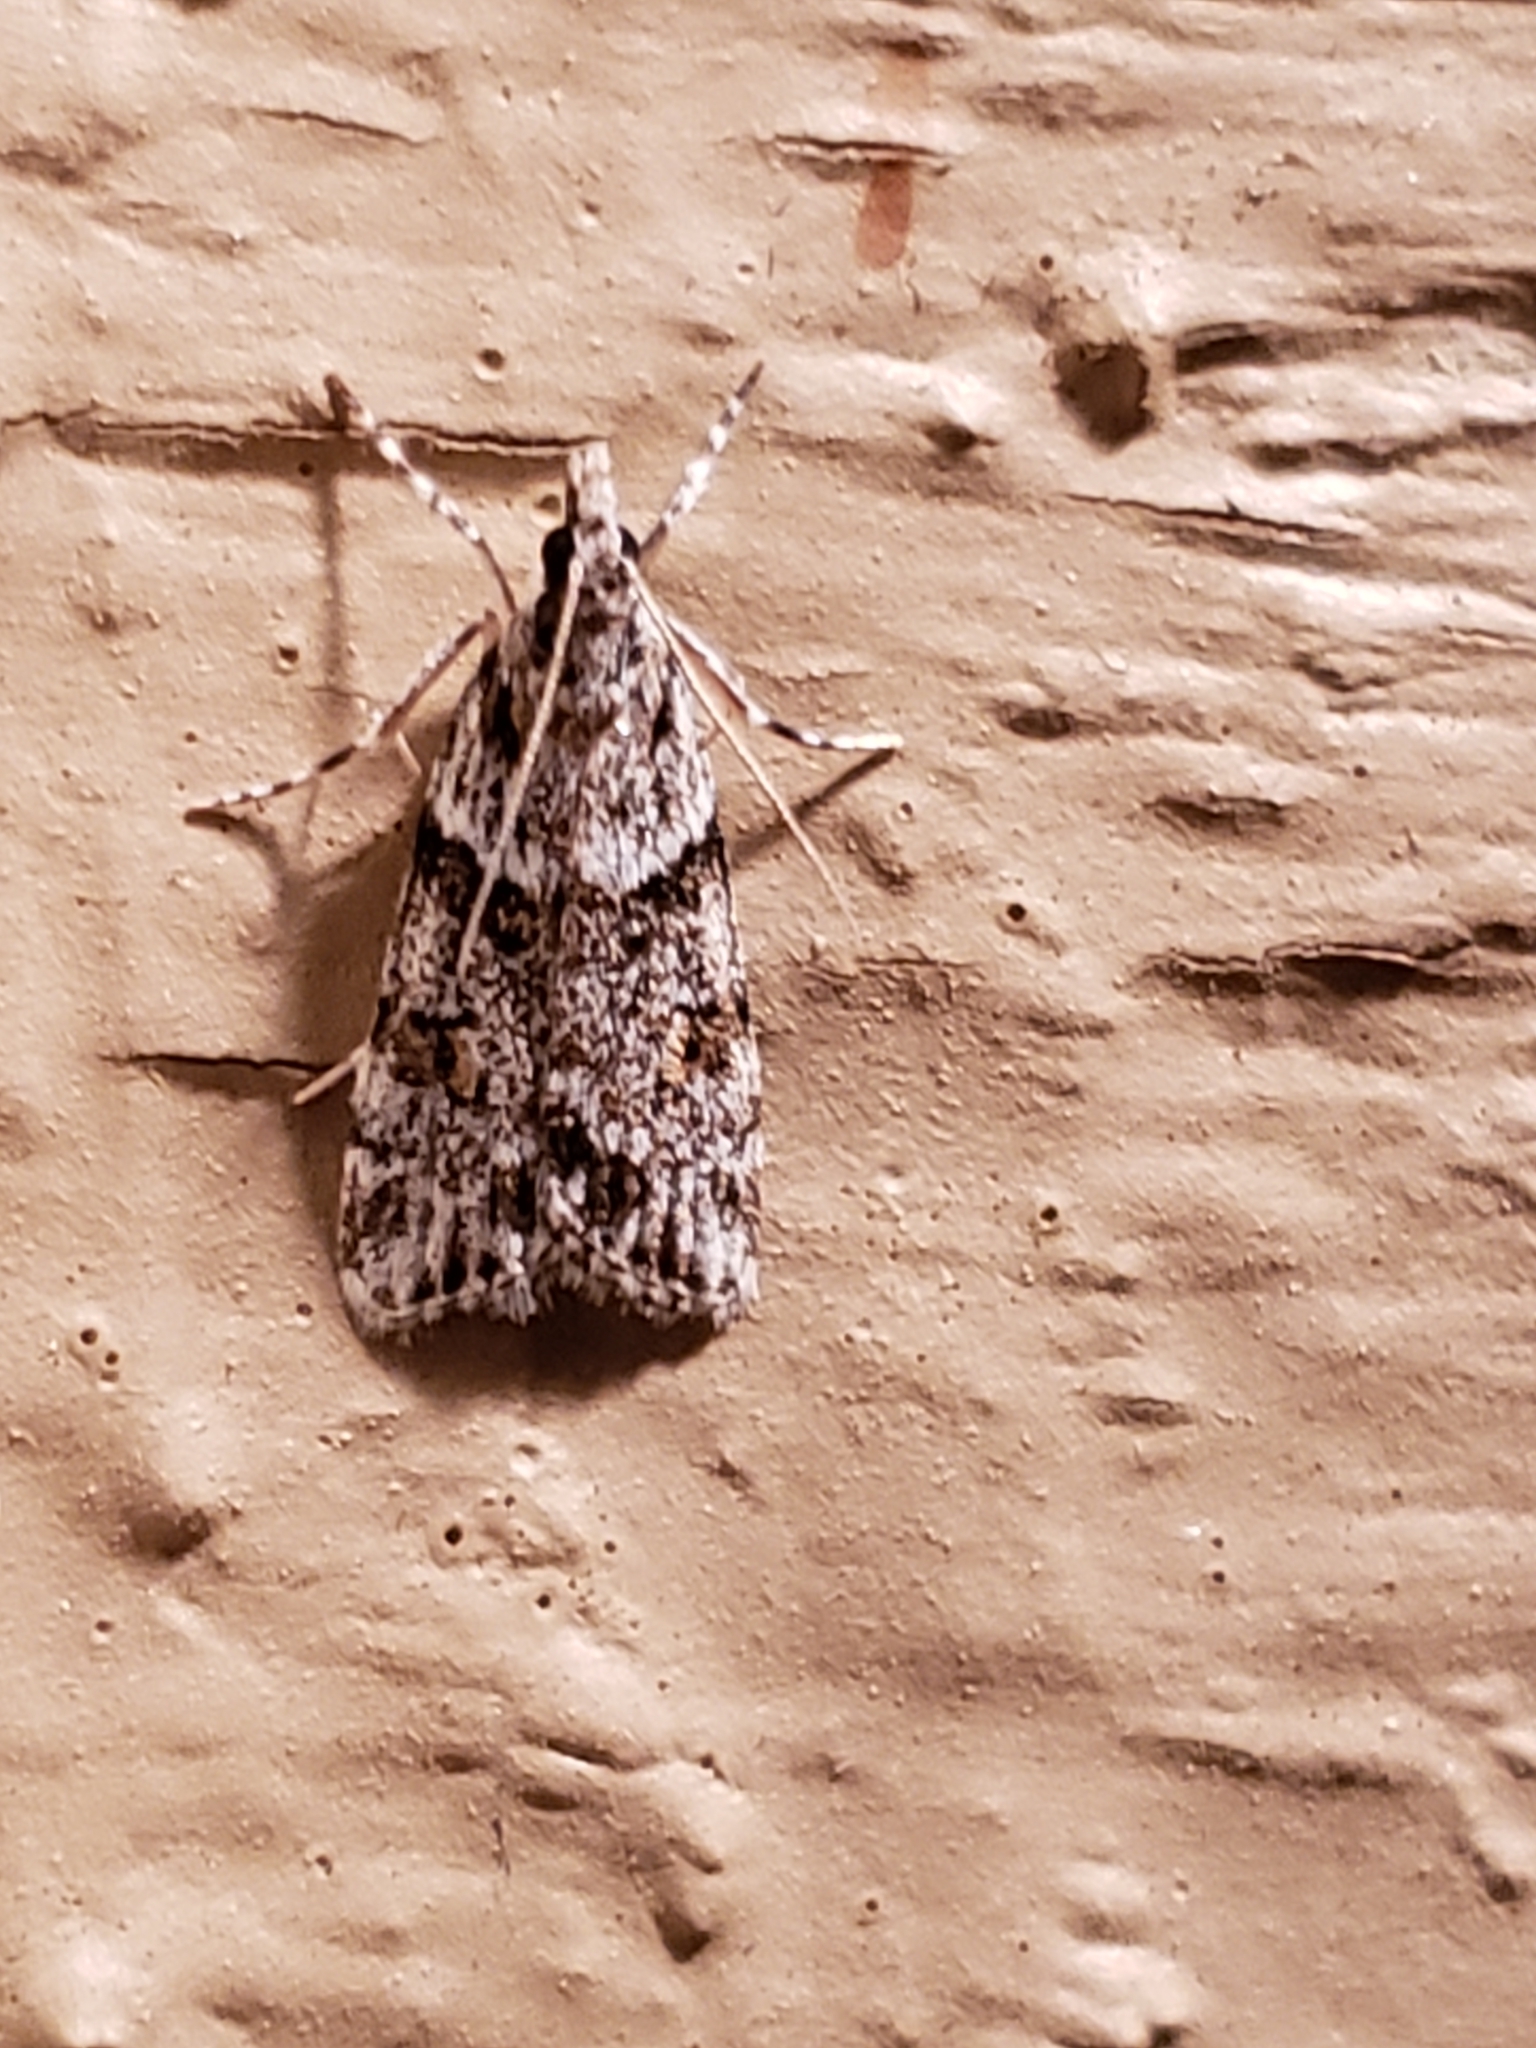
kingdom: Animalia
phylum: Arthropoda
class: Insecta
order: Lepidoptera
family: Crambidae
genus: Scoparia
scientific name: Scoparia biplagialis
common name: Double-striped scoparia moth
